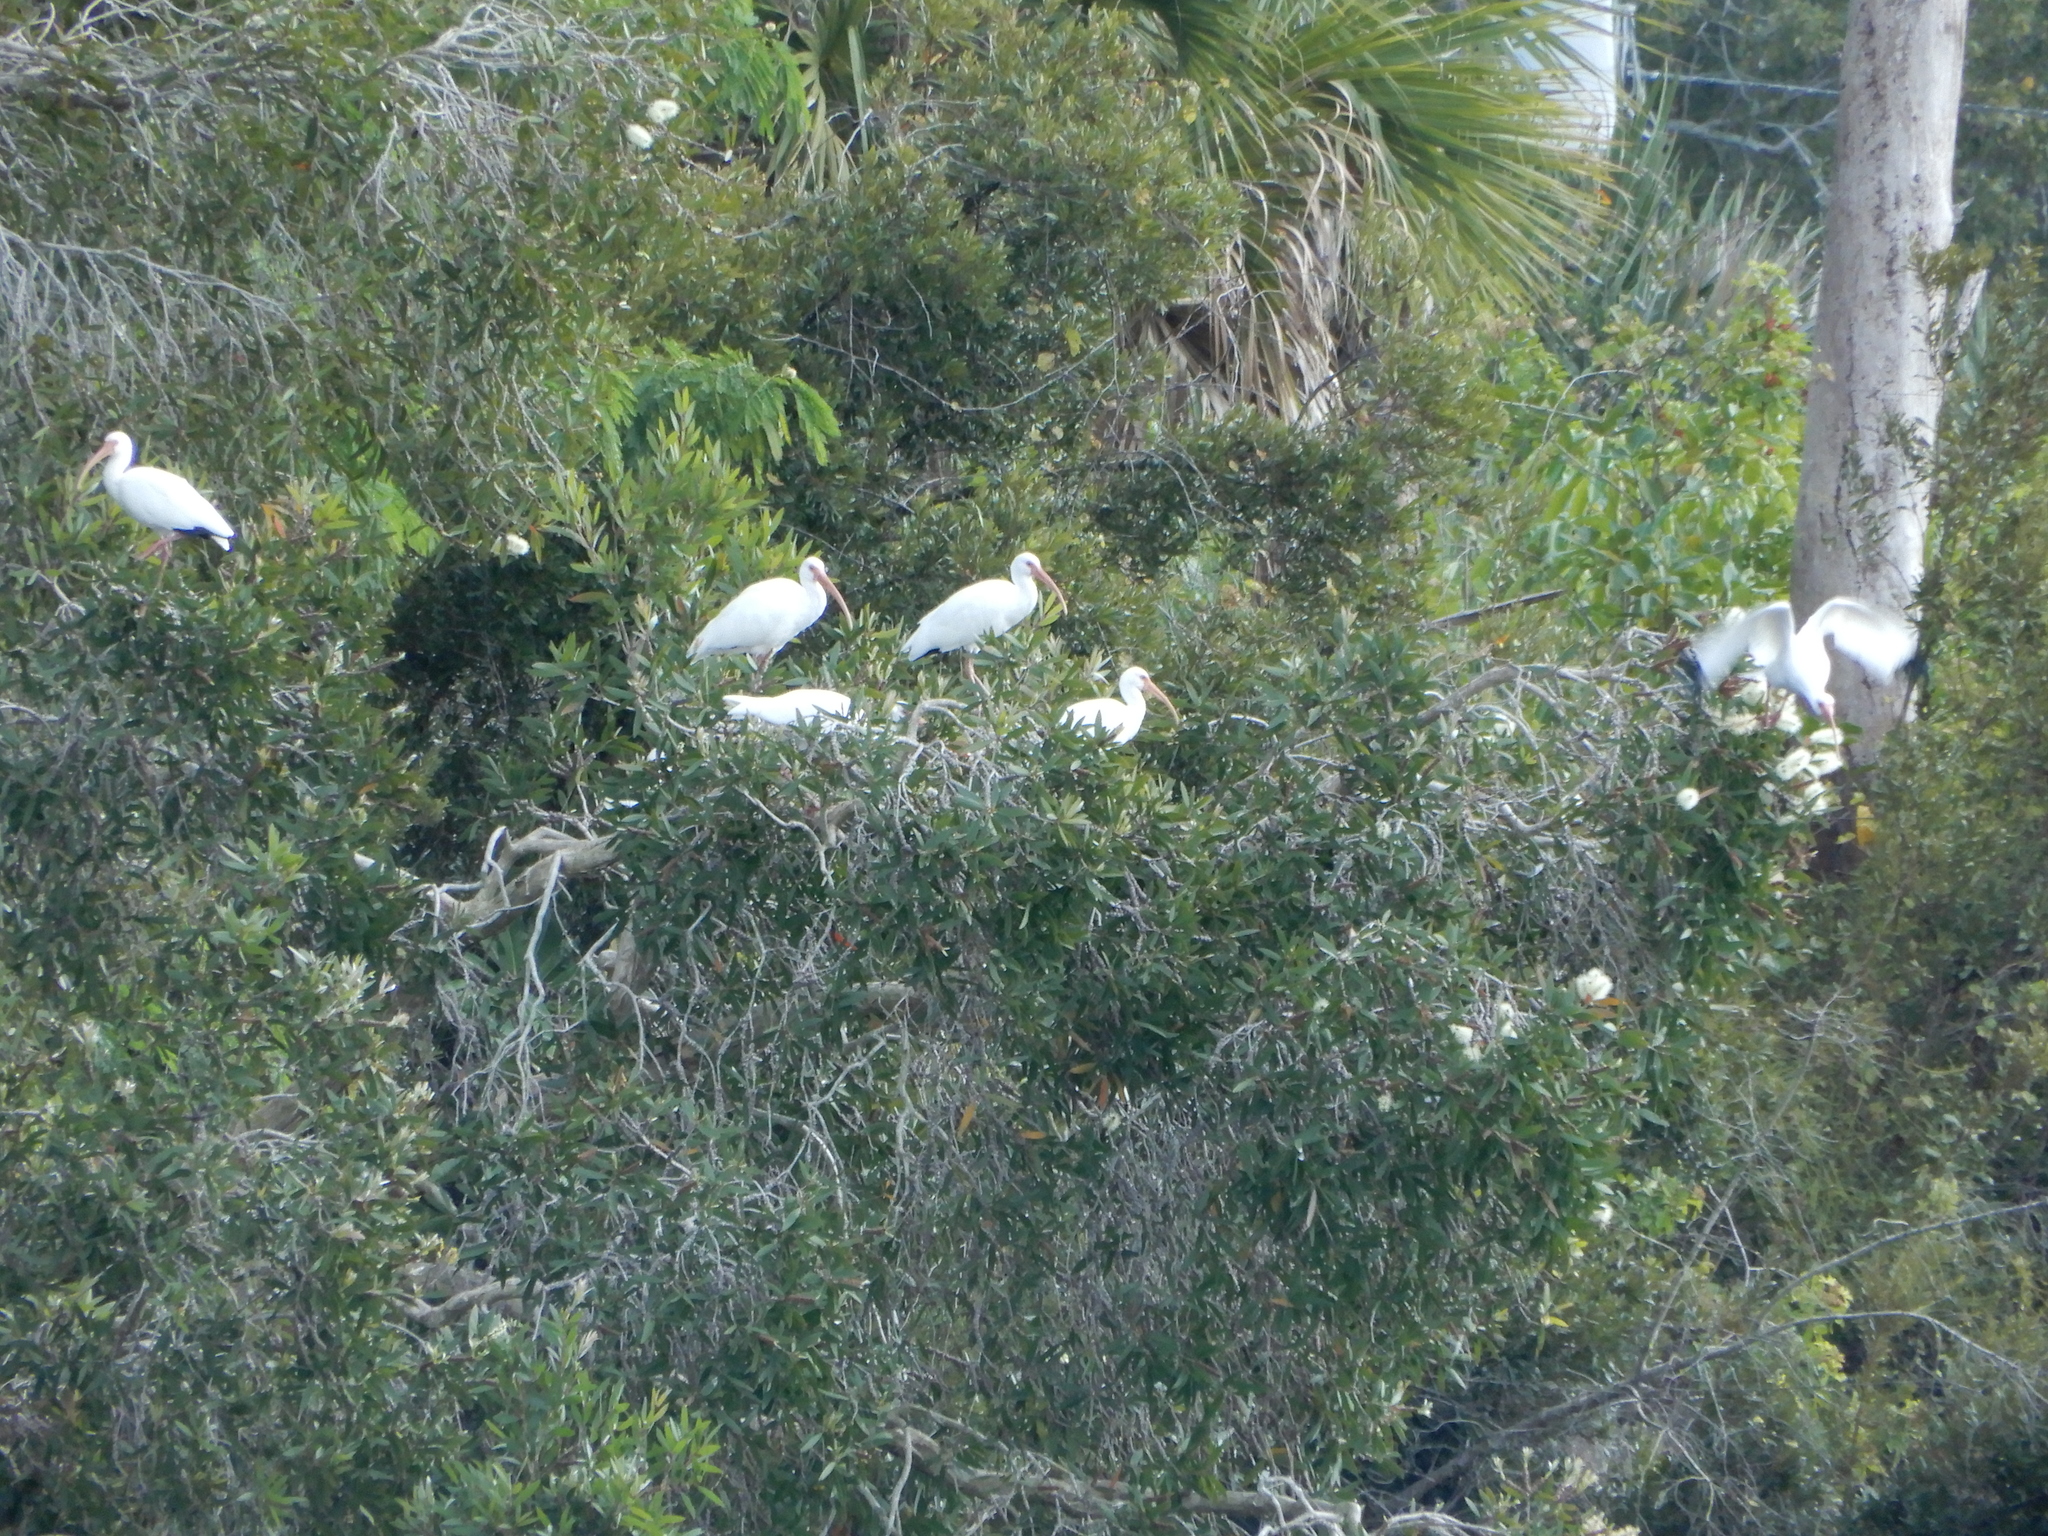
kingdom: Animalia
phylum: Chordata
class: Aves
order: Pelecaniformes
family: Threskiornithidae
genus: Eudocimus
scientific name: Eudocimus albus
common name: White ibis
